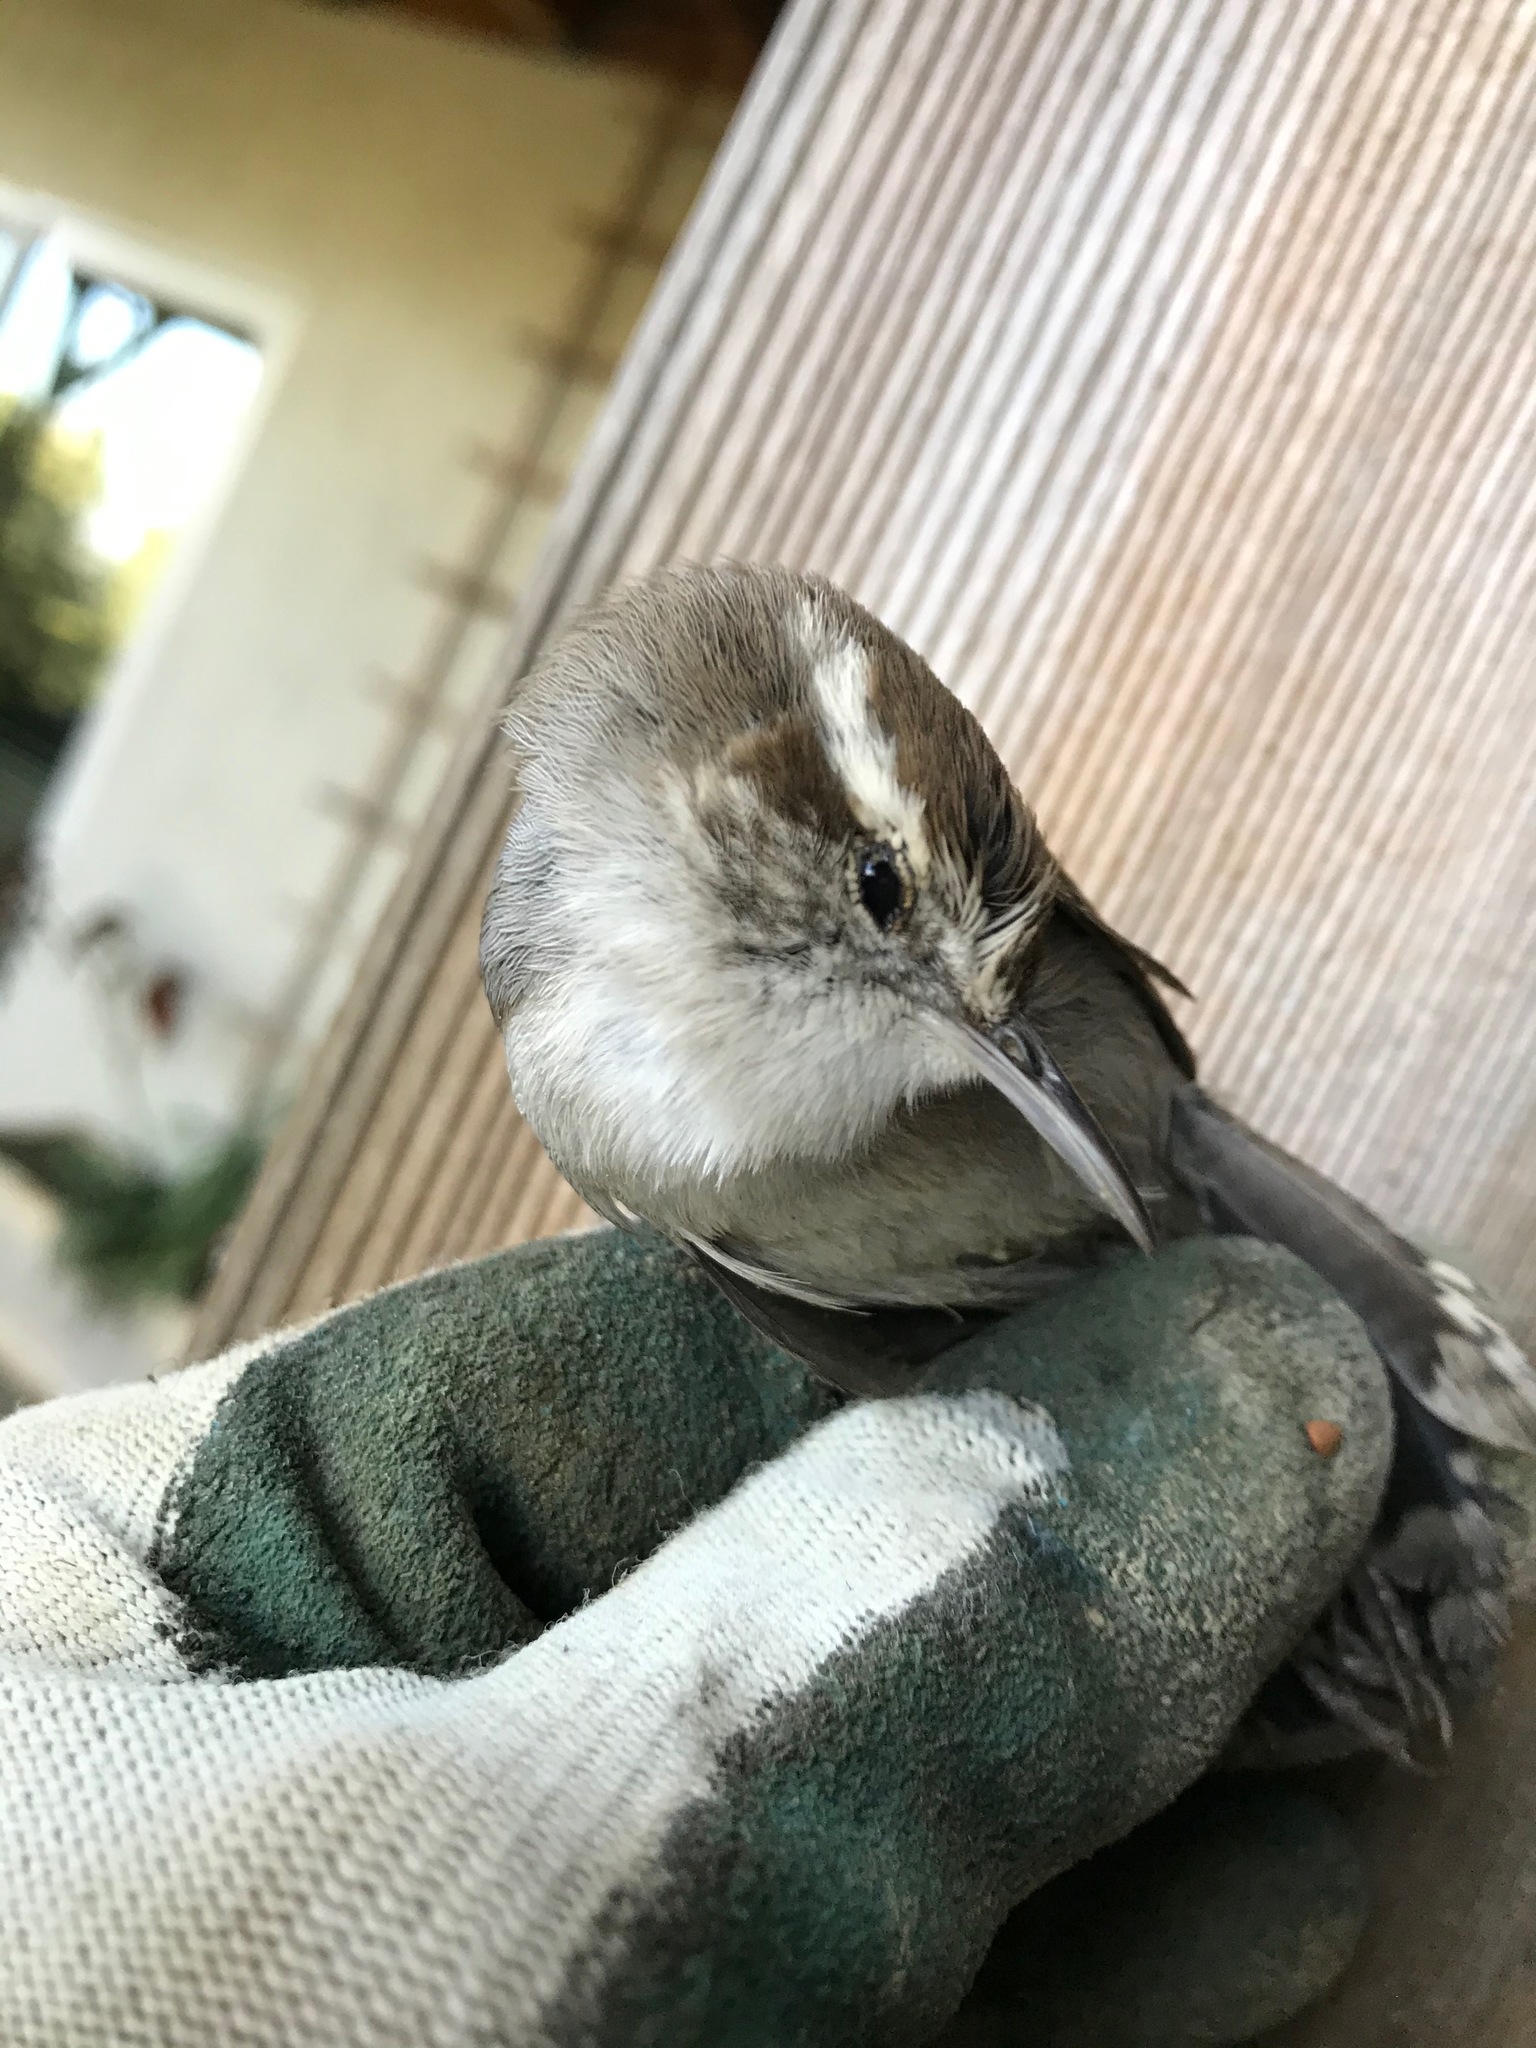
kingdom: Animalia
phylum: Chordata
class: Aves
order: Passeriformes
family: Troglodytidae
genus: Thryomanes
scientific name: Thryomanes bewickii
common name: Bewick's wren
